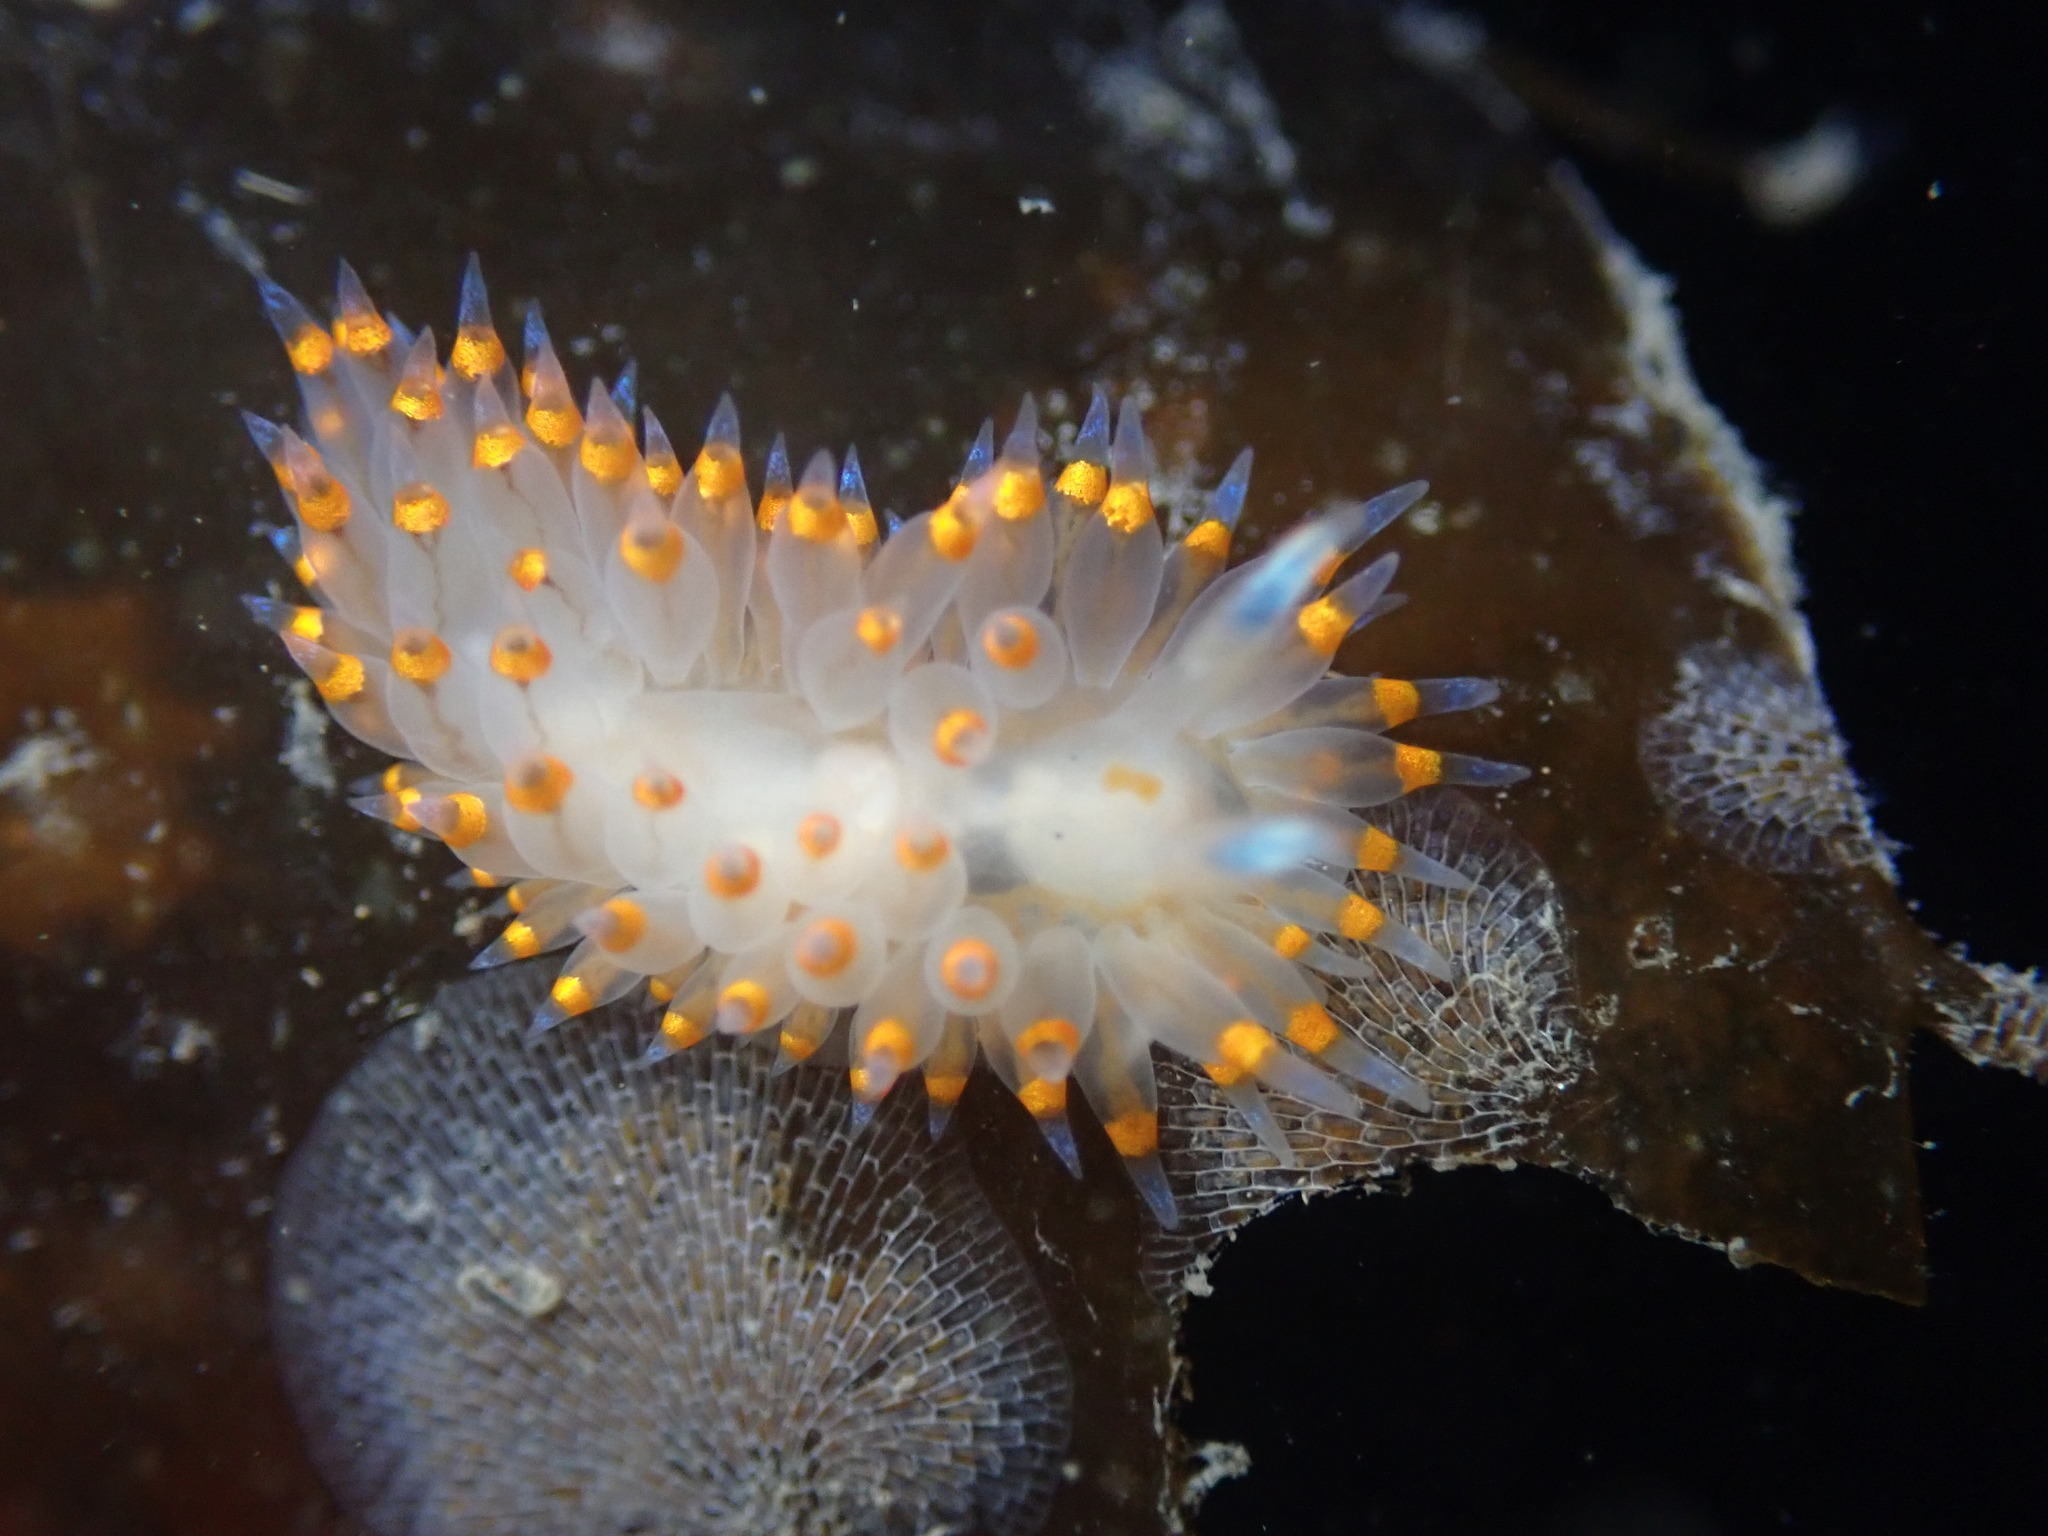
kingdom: Animalia
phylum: Mollusca
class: Gastropoda
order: Nudibranchia
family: Janolidae
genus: Antiopella
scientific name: Antiopella barbarensis
